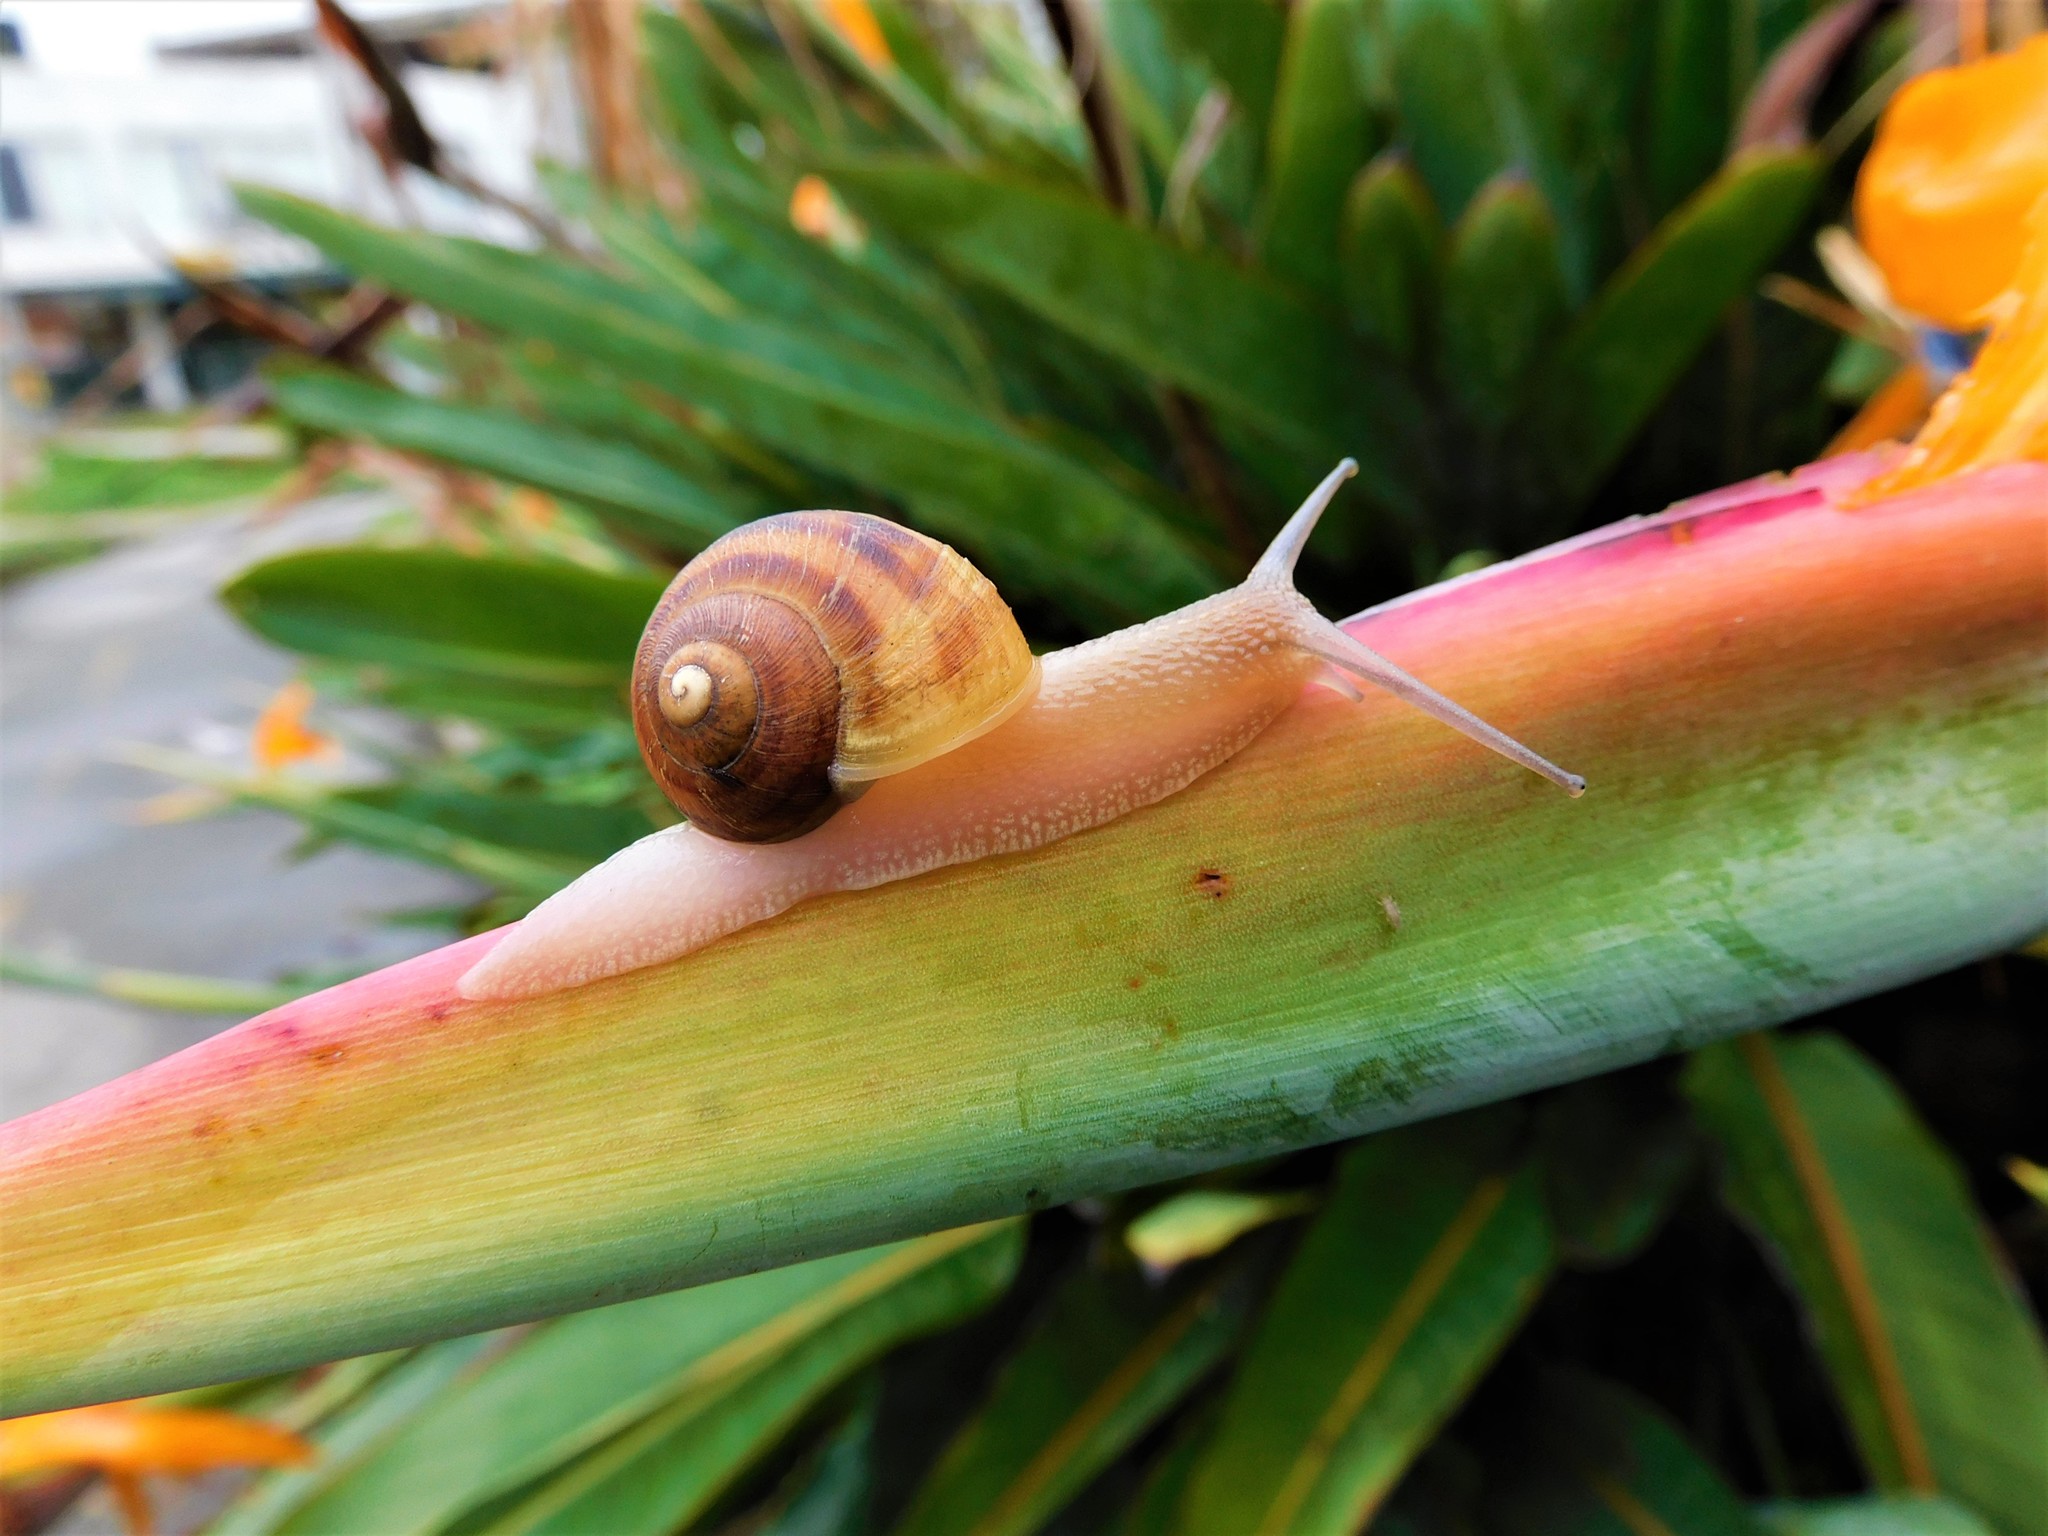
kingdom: Animalia
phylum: Mollusca
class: Gastropoda
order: Stylommatophora
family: Helicidae
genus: Cornu
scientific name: Cornu aspersum
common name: Brown garden snail
